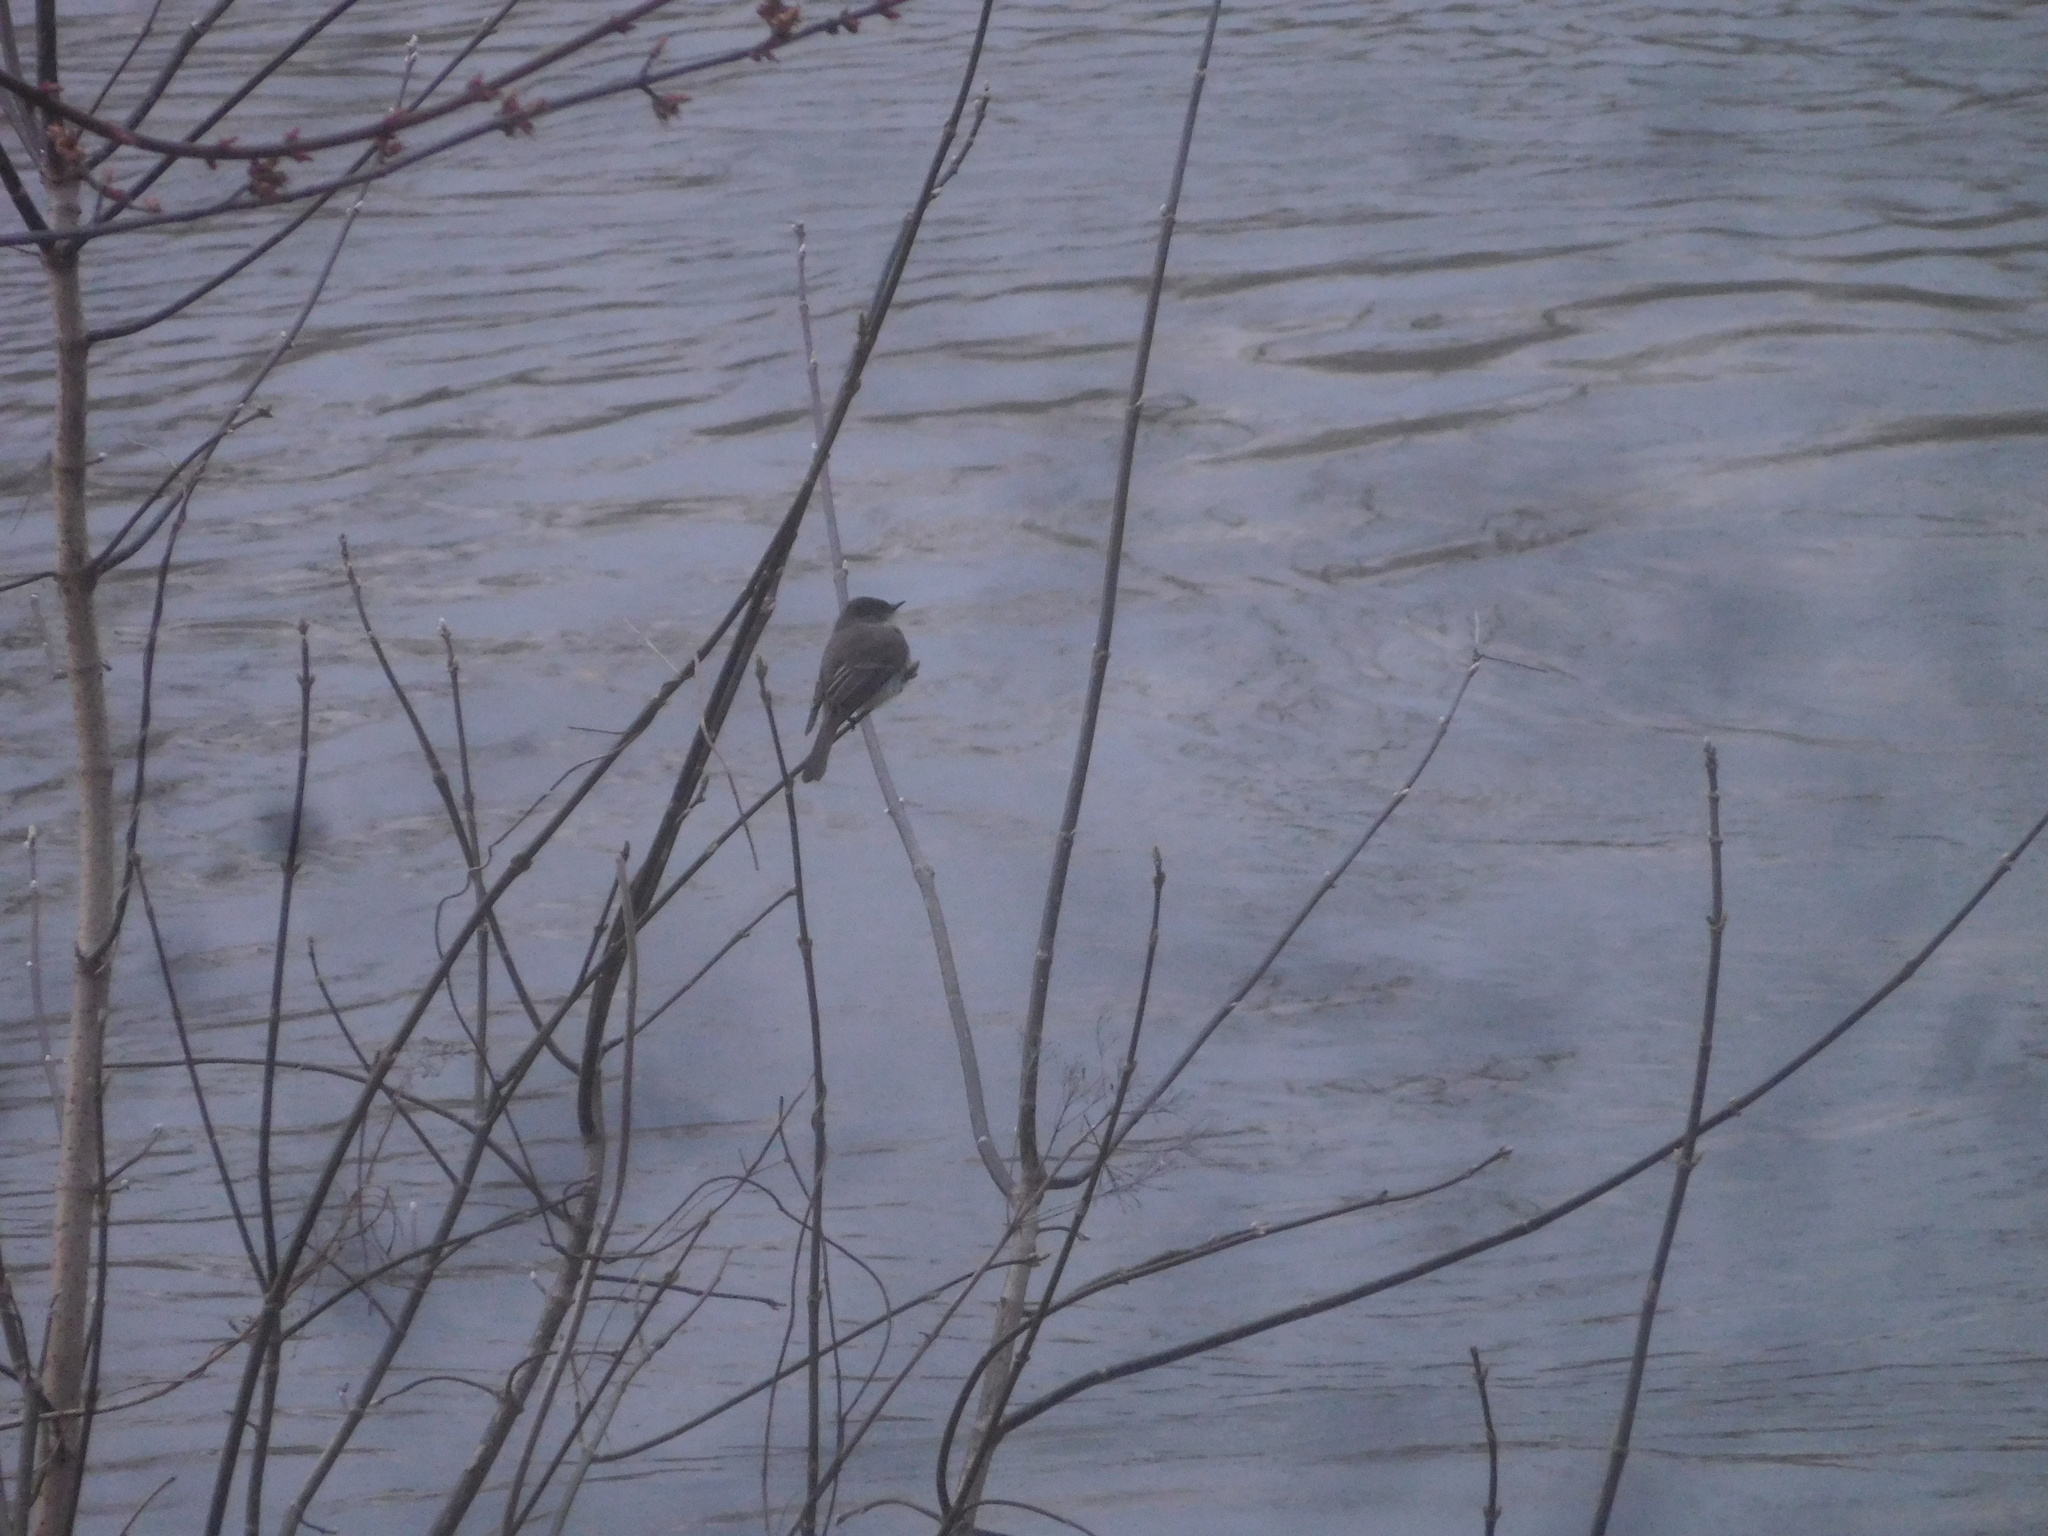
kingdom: Animalia
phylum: Chordata
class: Aves
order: Passeriformes
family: Tyrannidae
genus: Sayornis
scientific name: Sayornis phoebe
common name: Eastern phoebe
